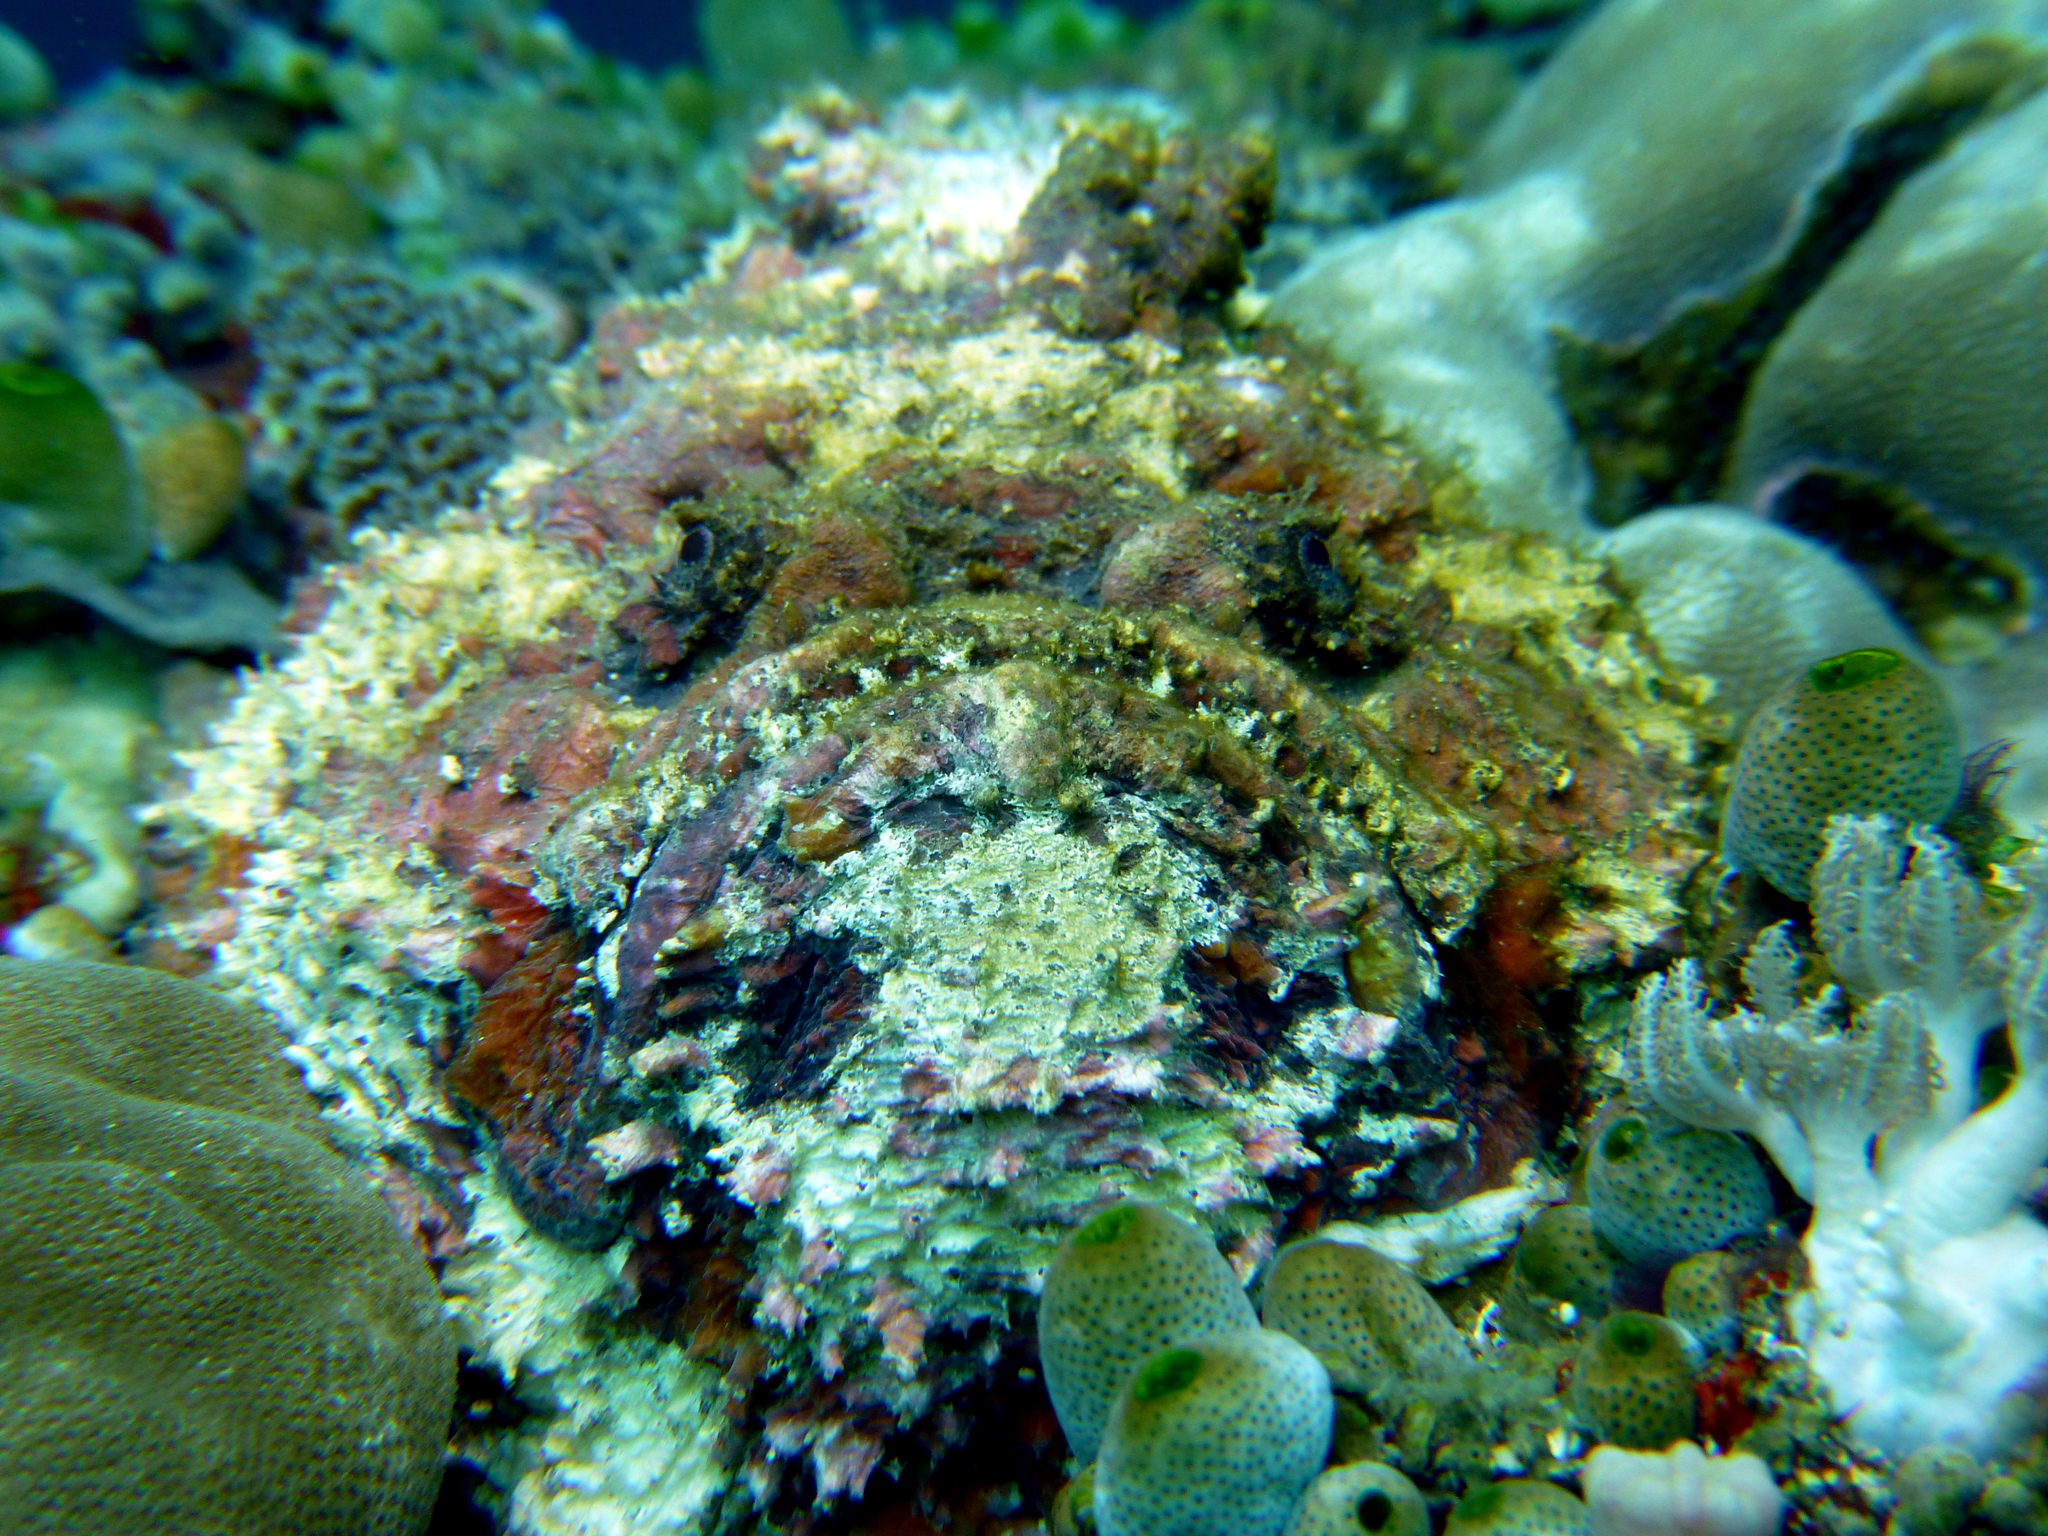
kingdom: Animalia
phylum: Chordata
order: Scorpaeniformes
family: Synanceiidae
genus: Synanceia
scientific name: Synanceia verrucosa
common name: Stonefish
